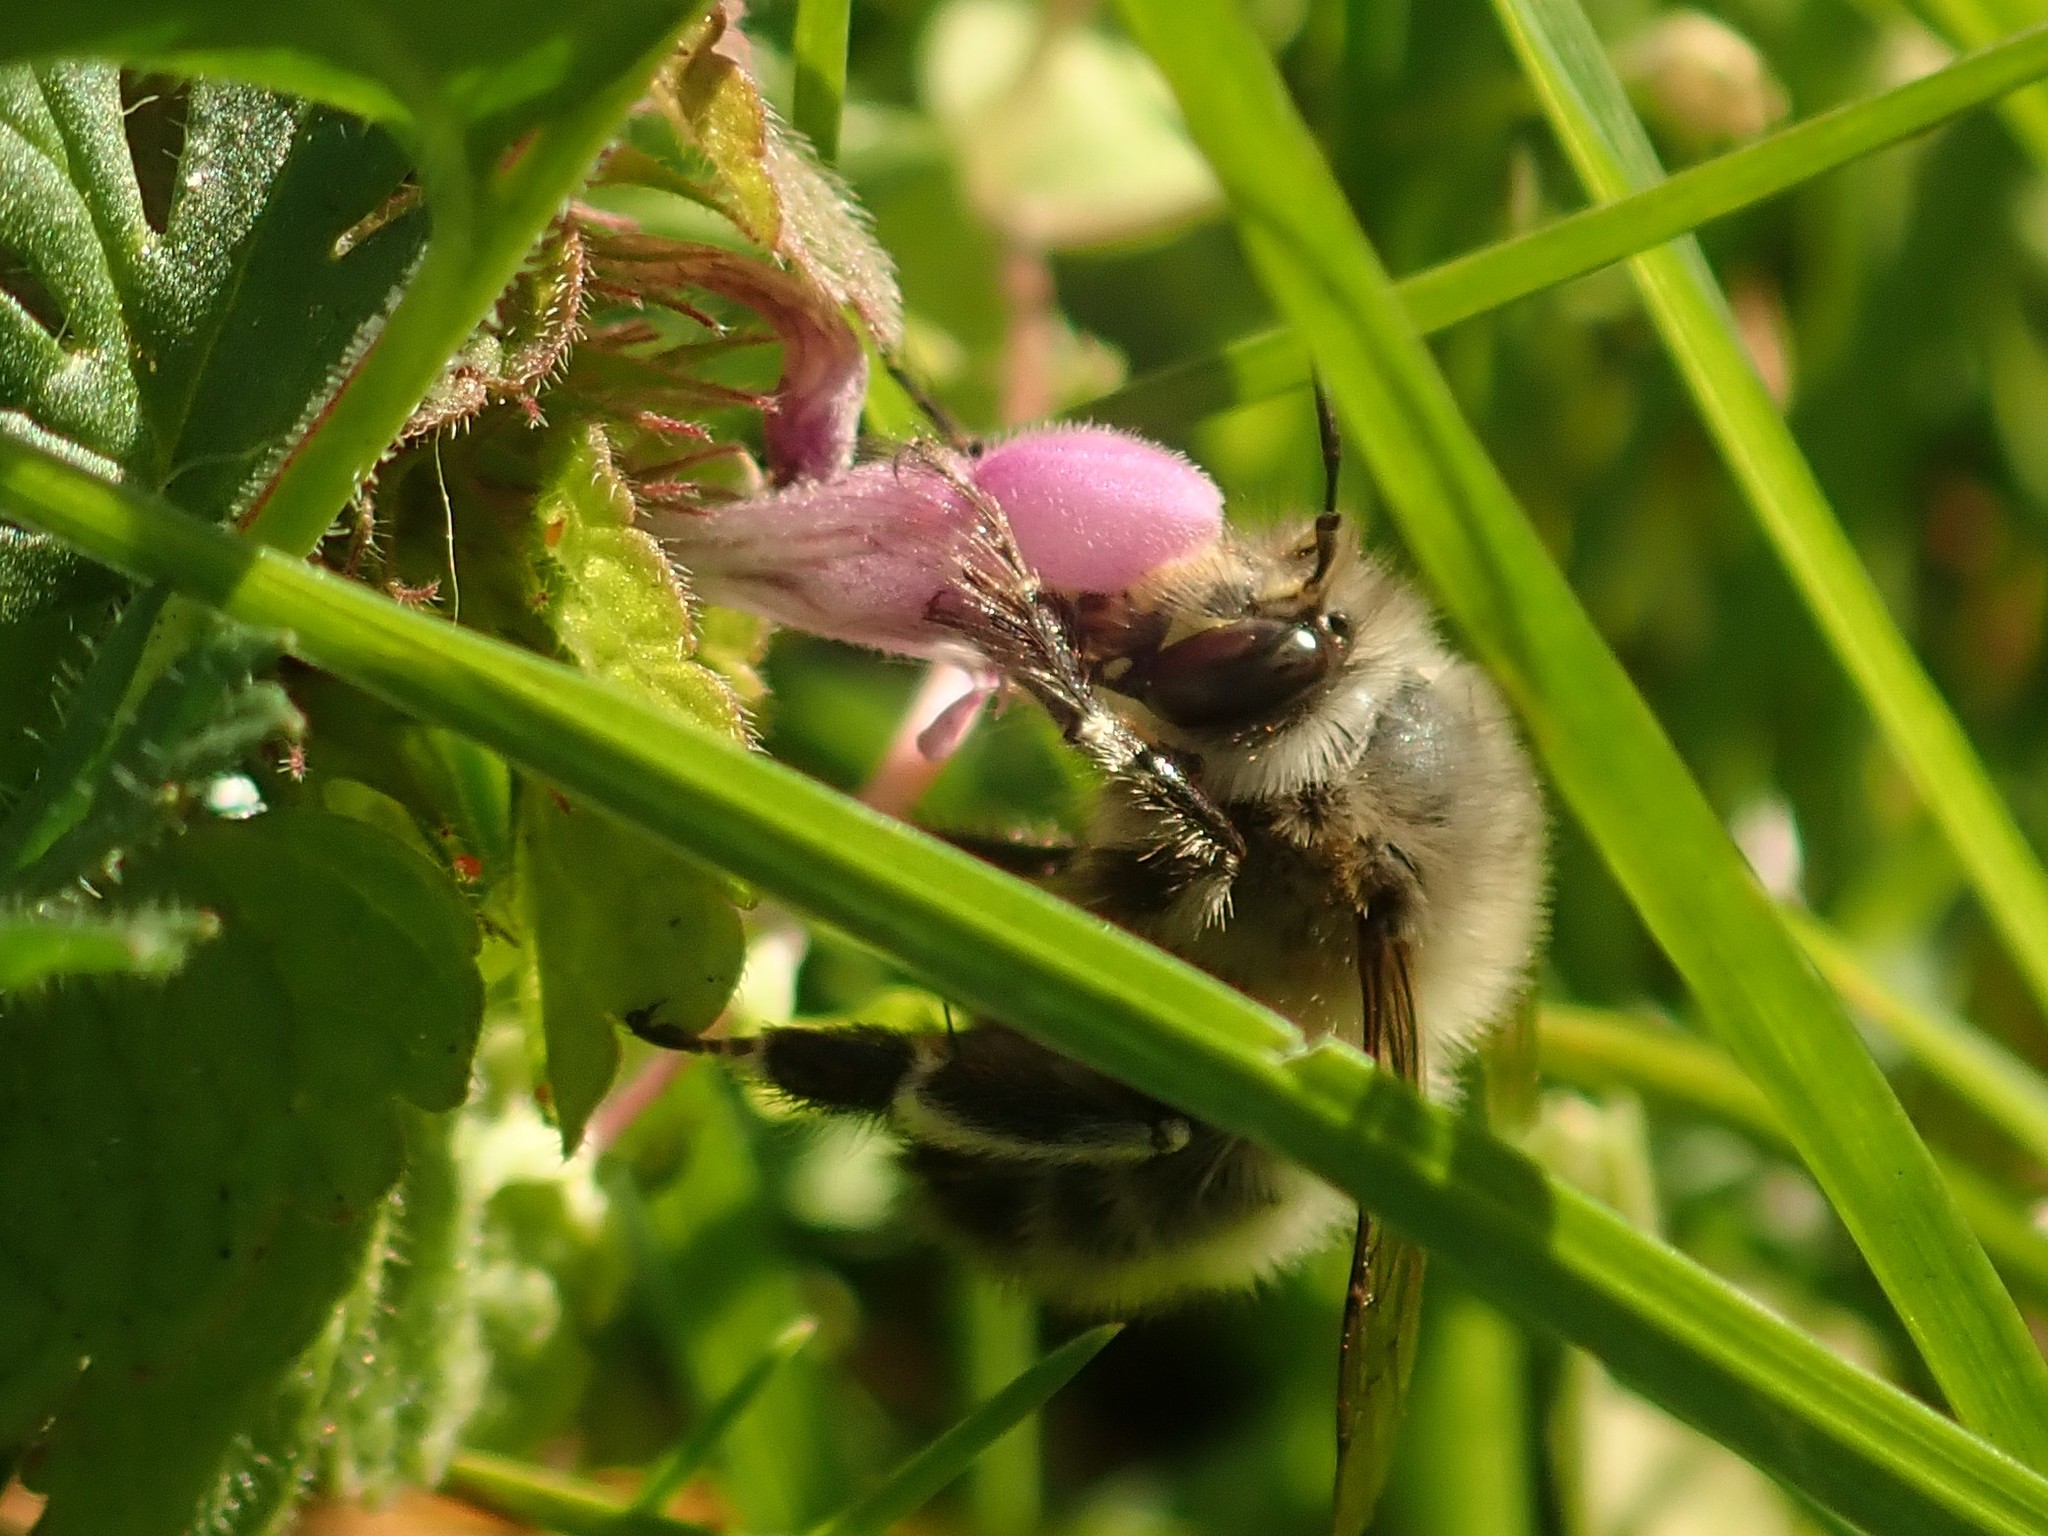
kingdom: Animalia
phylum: Arthropoda
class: Insecta
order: Hymenoptera
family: Apidae
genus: Anthophora
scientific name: Anthophora plumipes
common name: Hairy-footed flower bee
